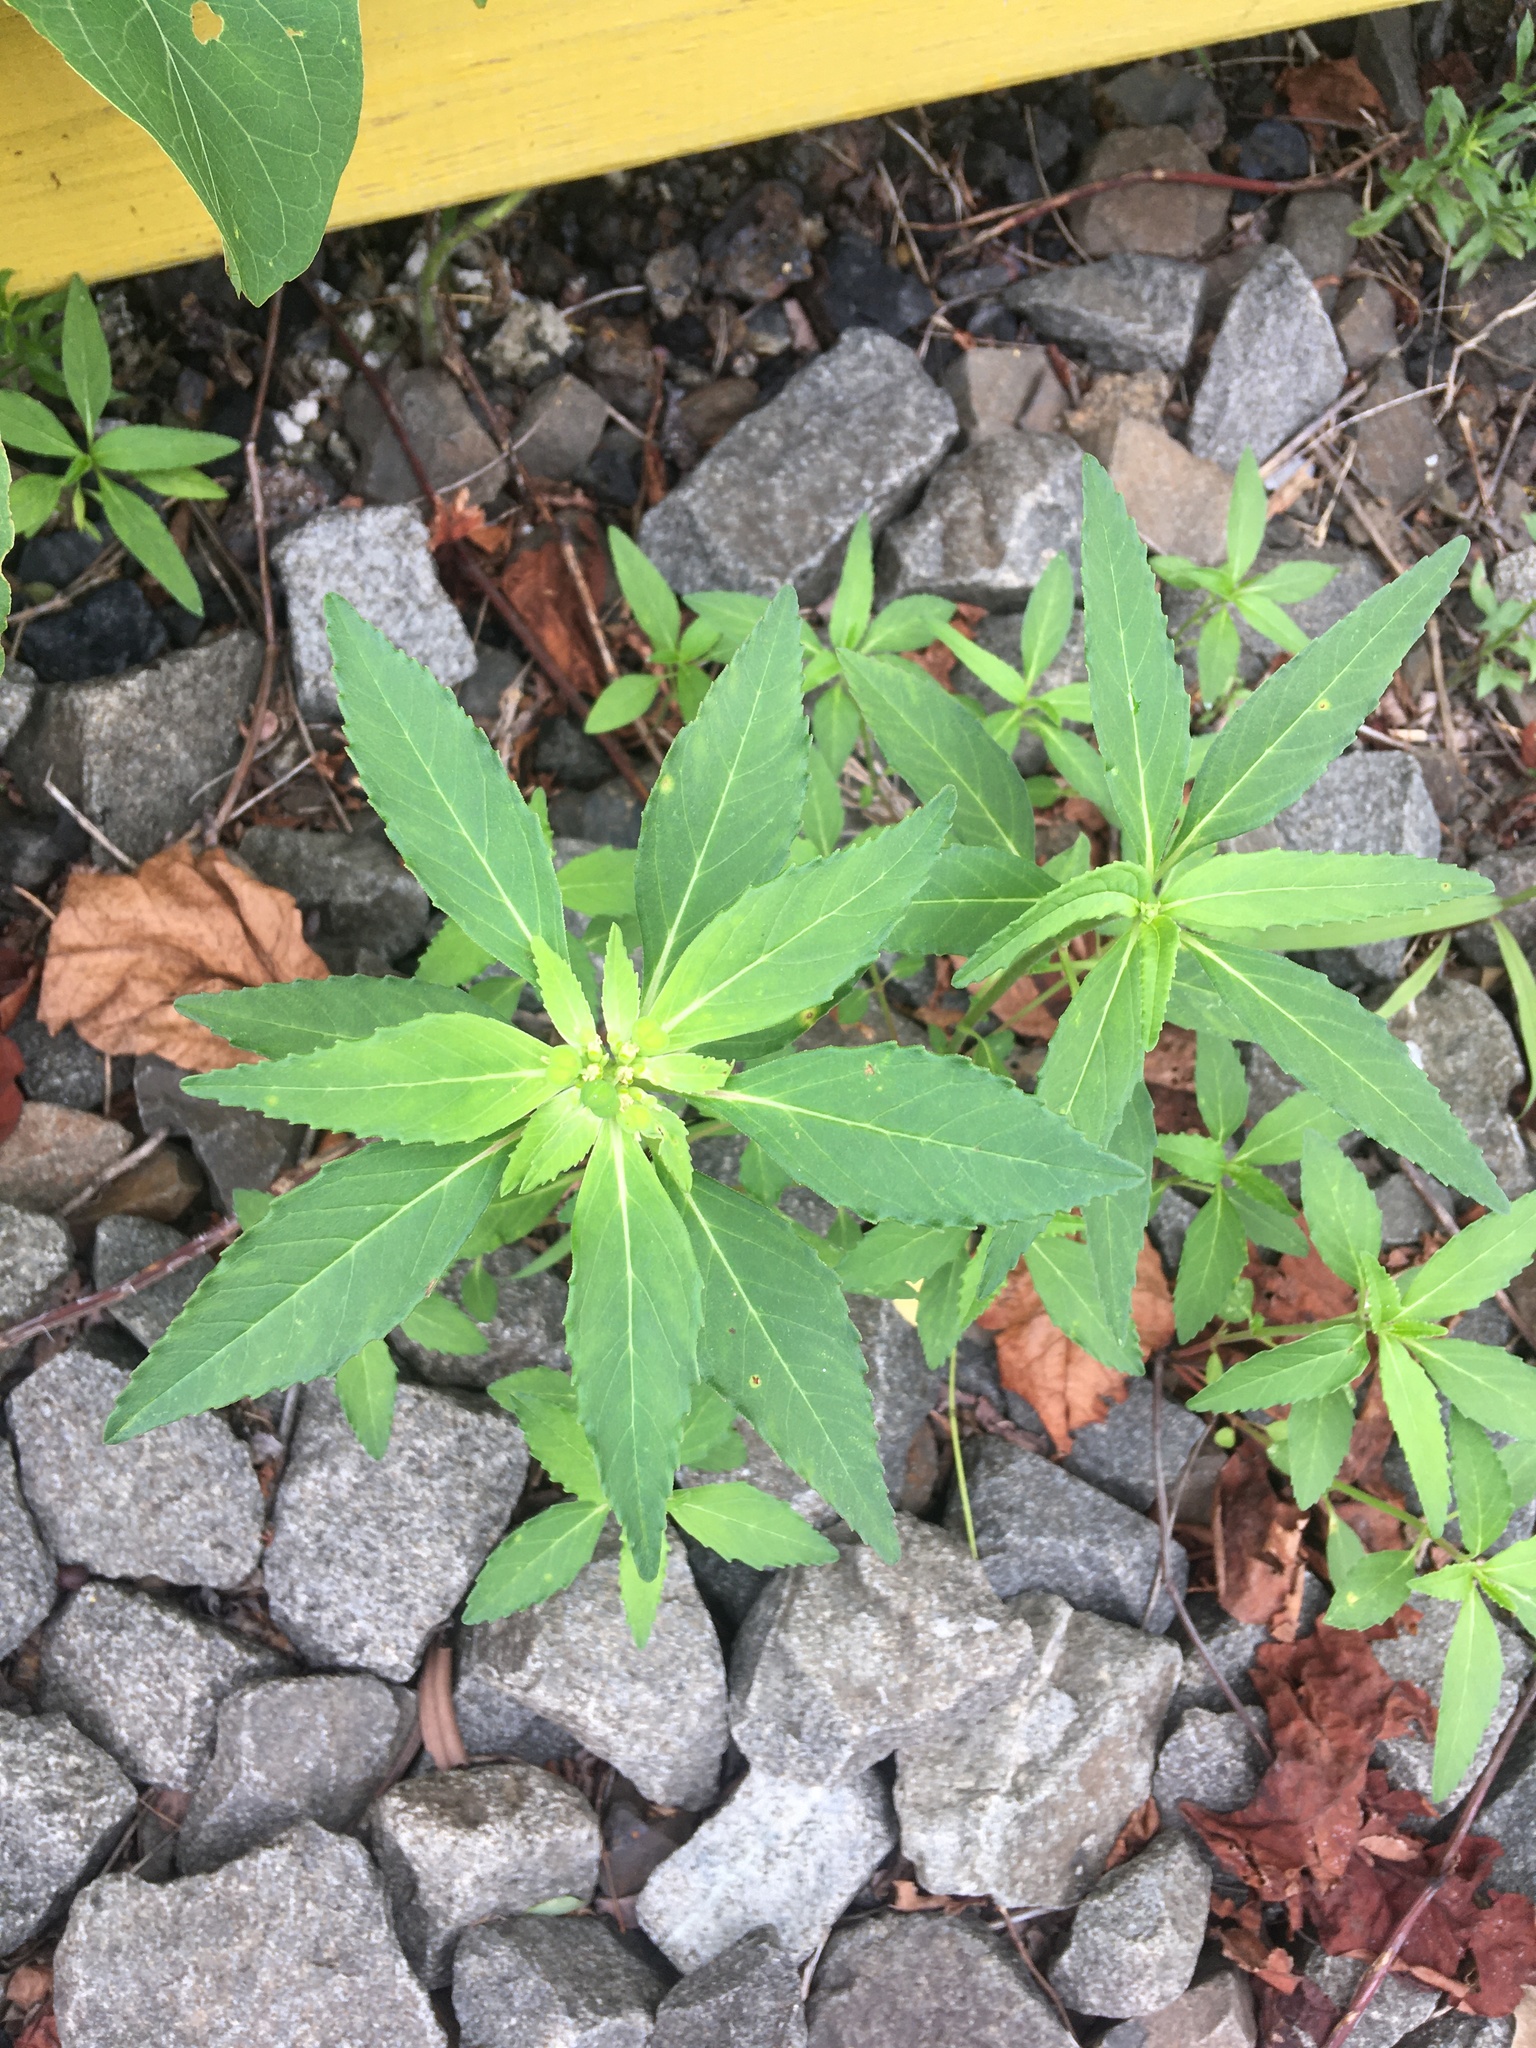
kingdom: Plantae
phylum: Tracheophyta
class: Magnoliopsida
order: Malpighiales
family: Euphorbiaceae
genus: Euphorbia
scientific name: Euphorbia dentata
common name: Dentate spurge
